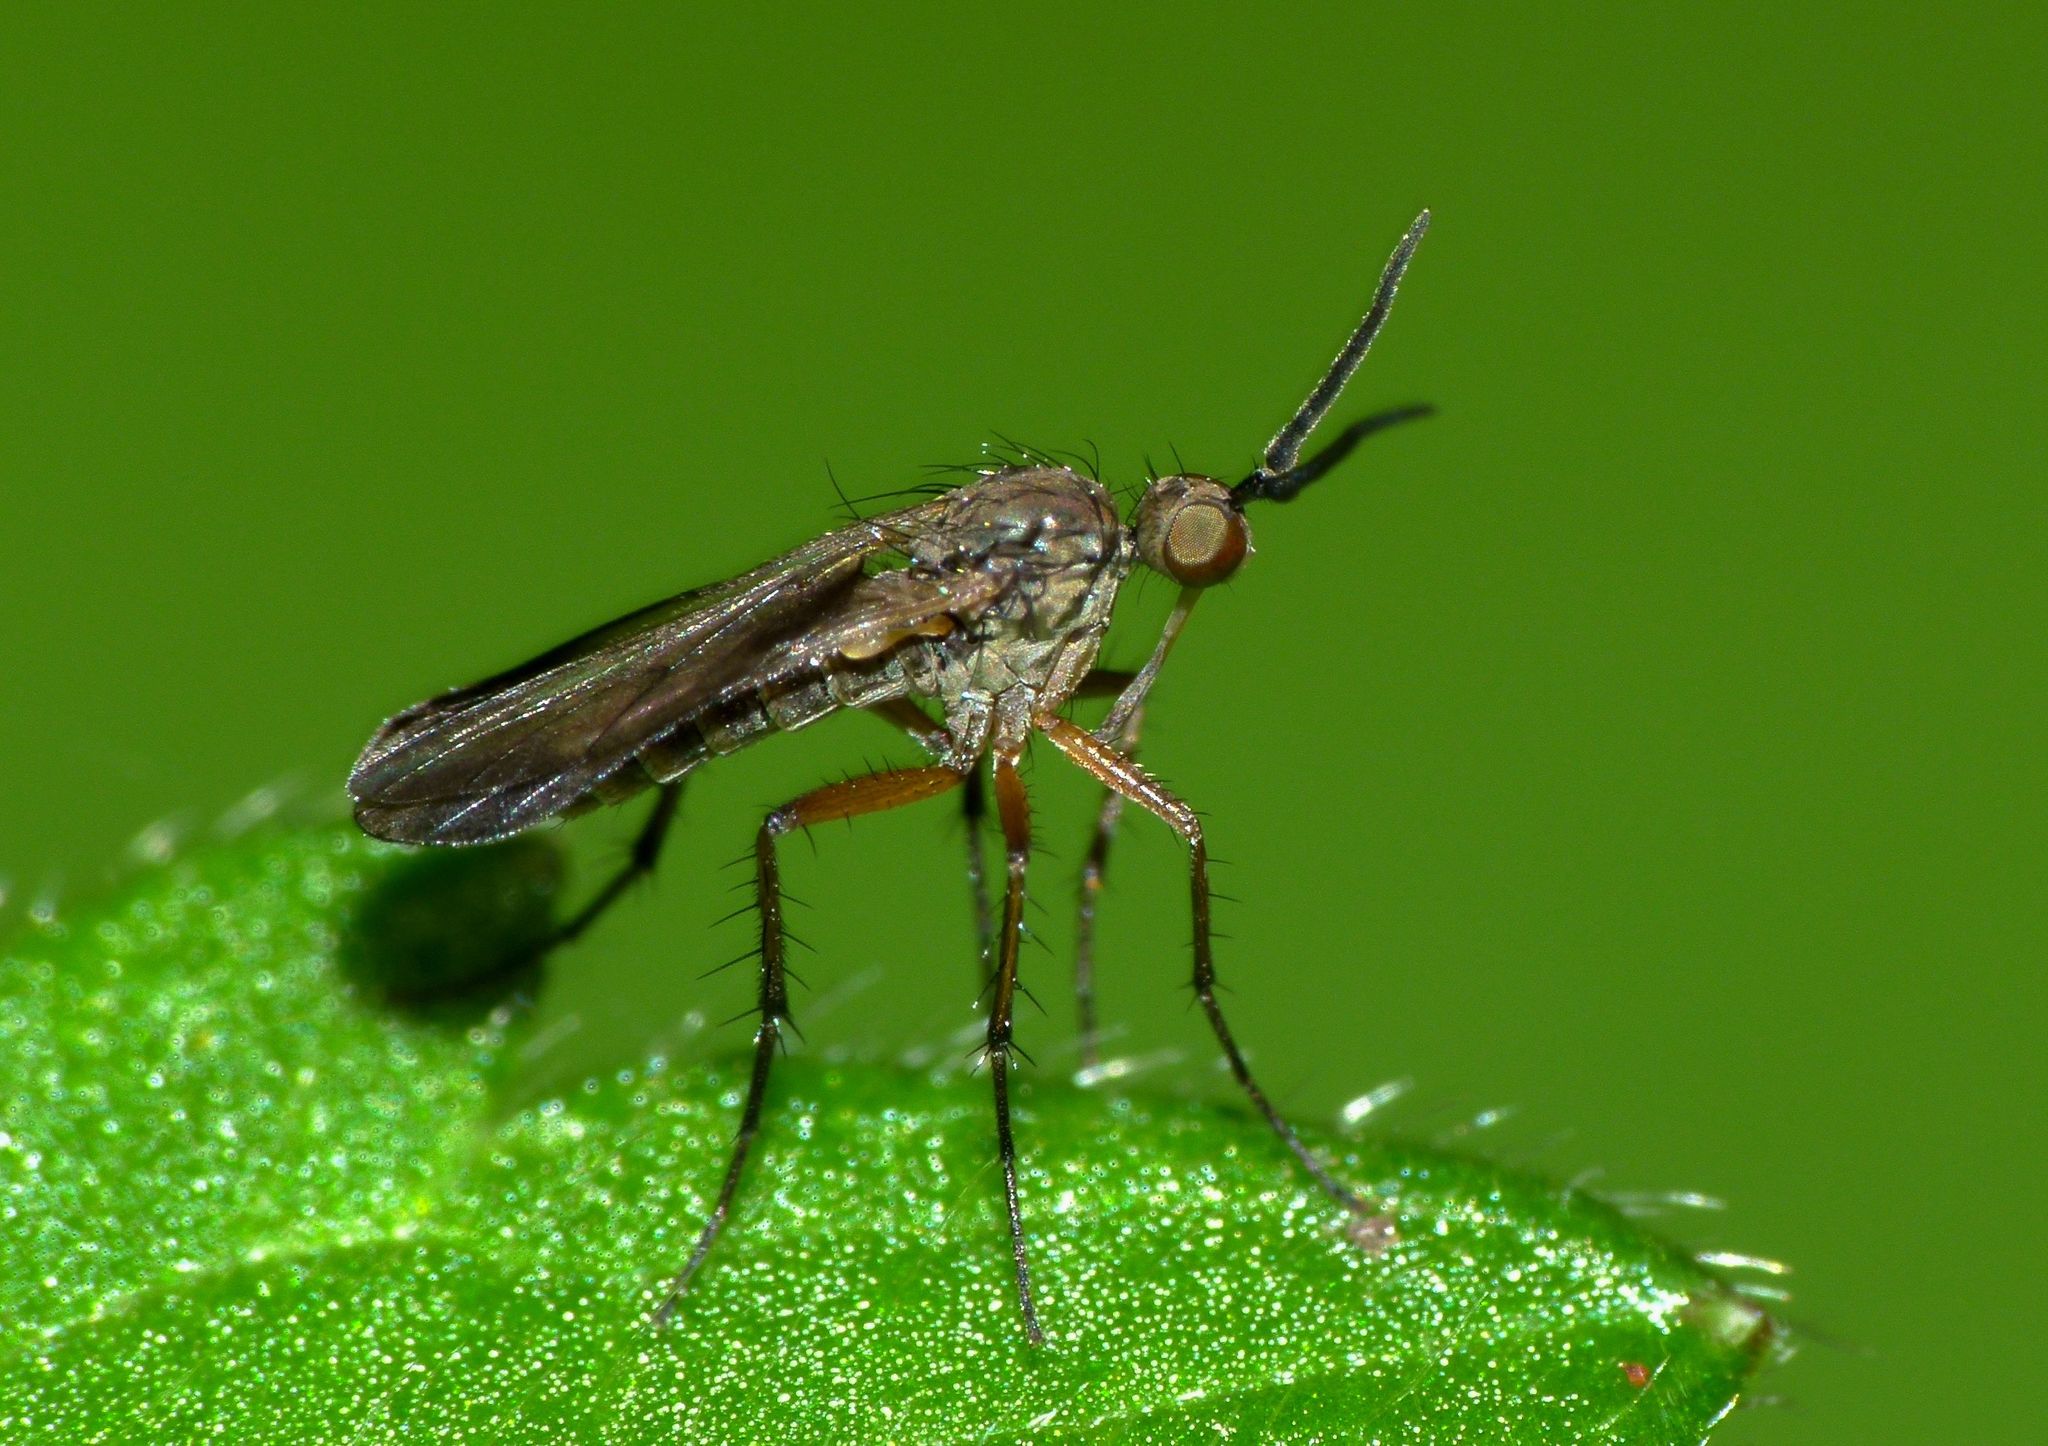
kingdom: Animalia
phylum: Arthropoda
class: Insecta
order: Diptera
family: Empididae
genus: Empidadelpha
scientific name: Empidadelpha pokekeao
